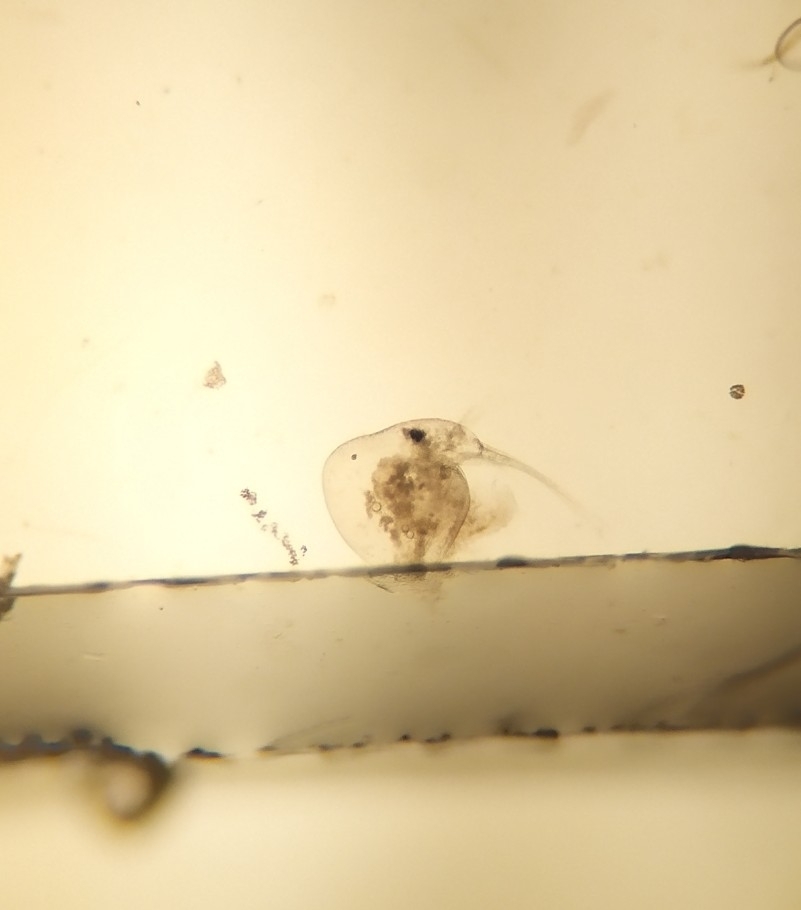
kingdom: Animalia
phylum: Arthropoda
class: Branchiopoda
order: Diplostraca
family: Bosminidae
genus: Bosmina
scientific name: Bosmina coregoni
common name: Water flea
